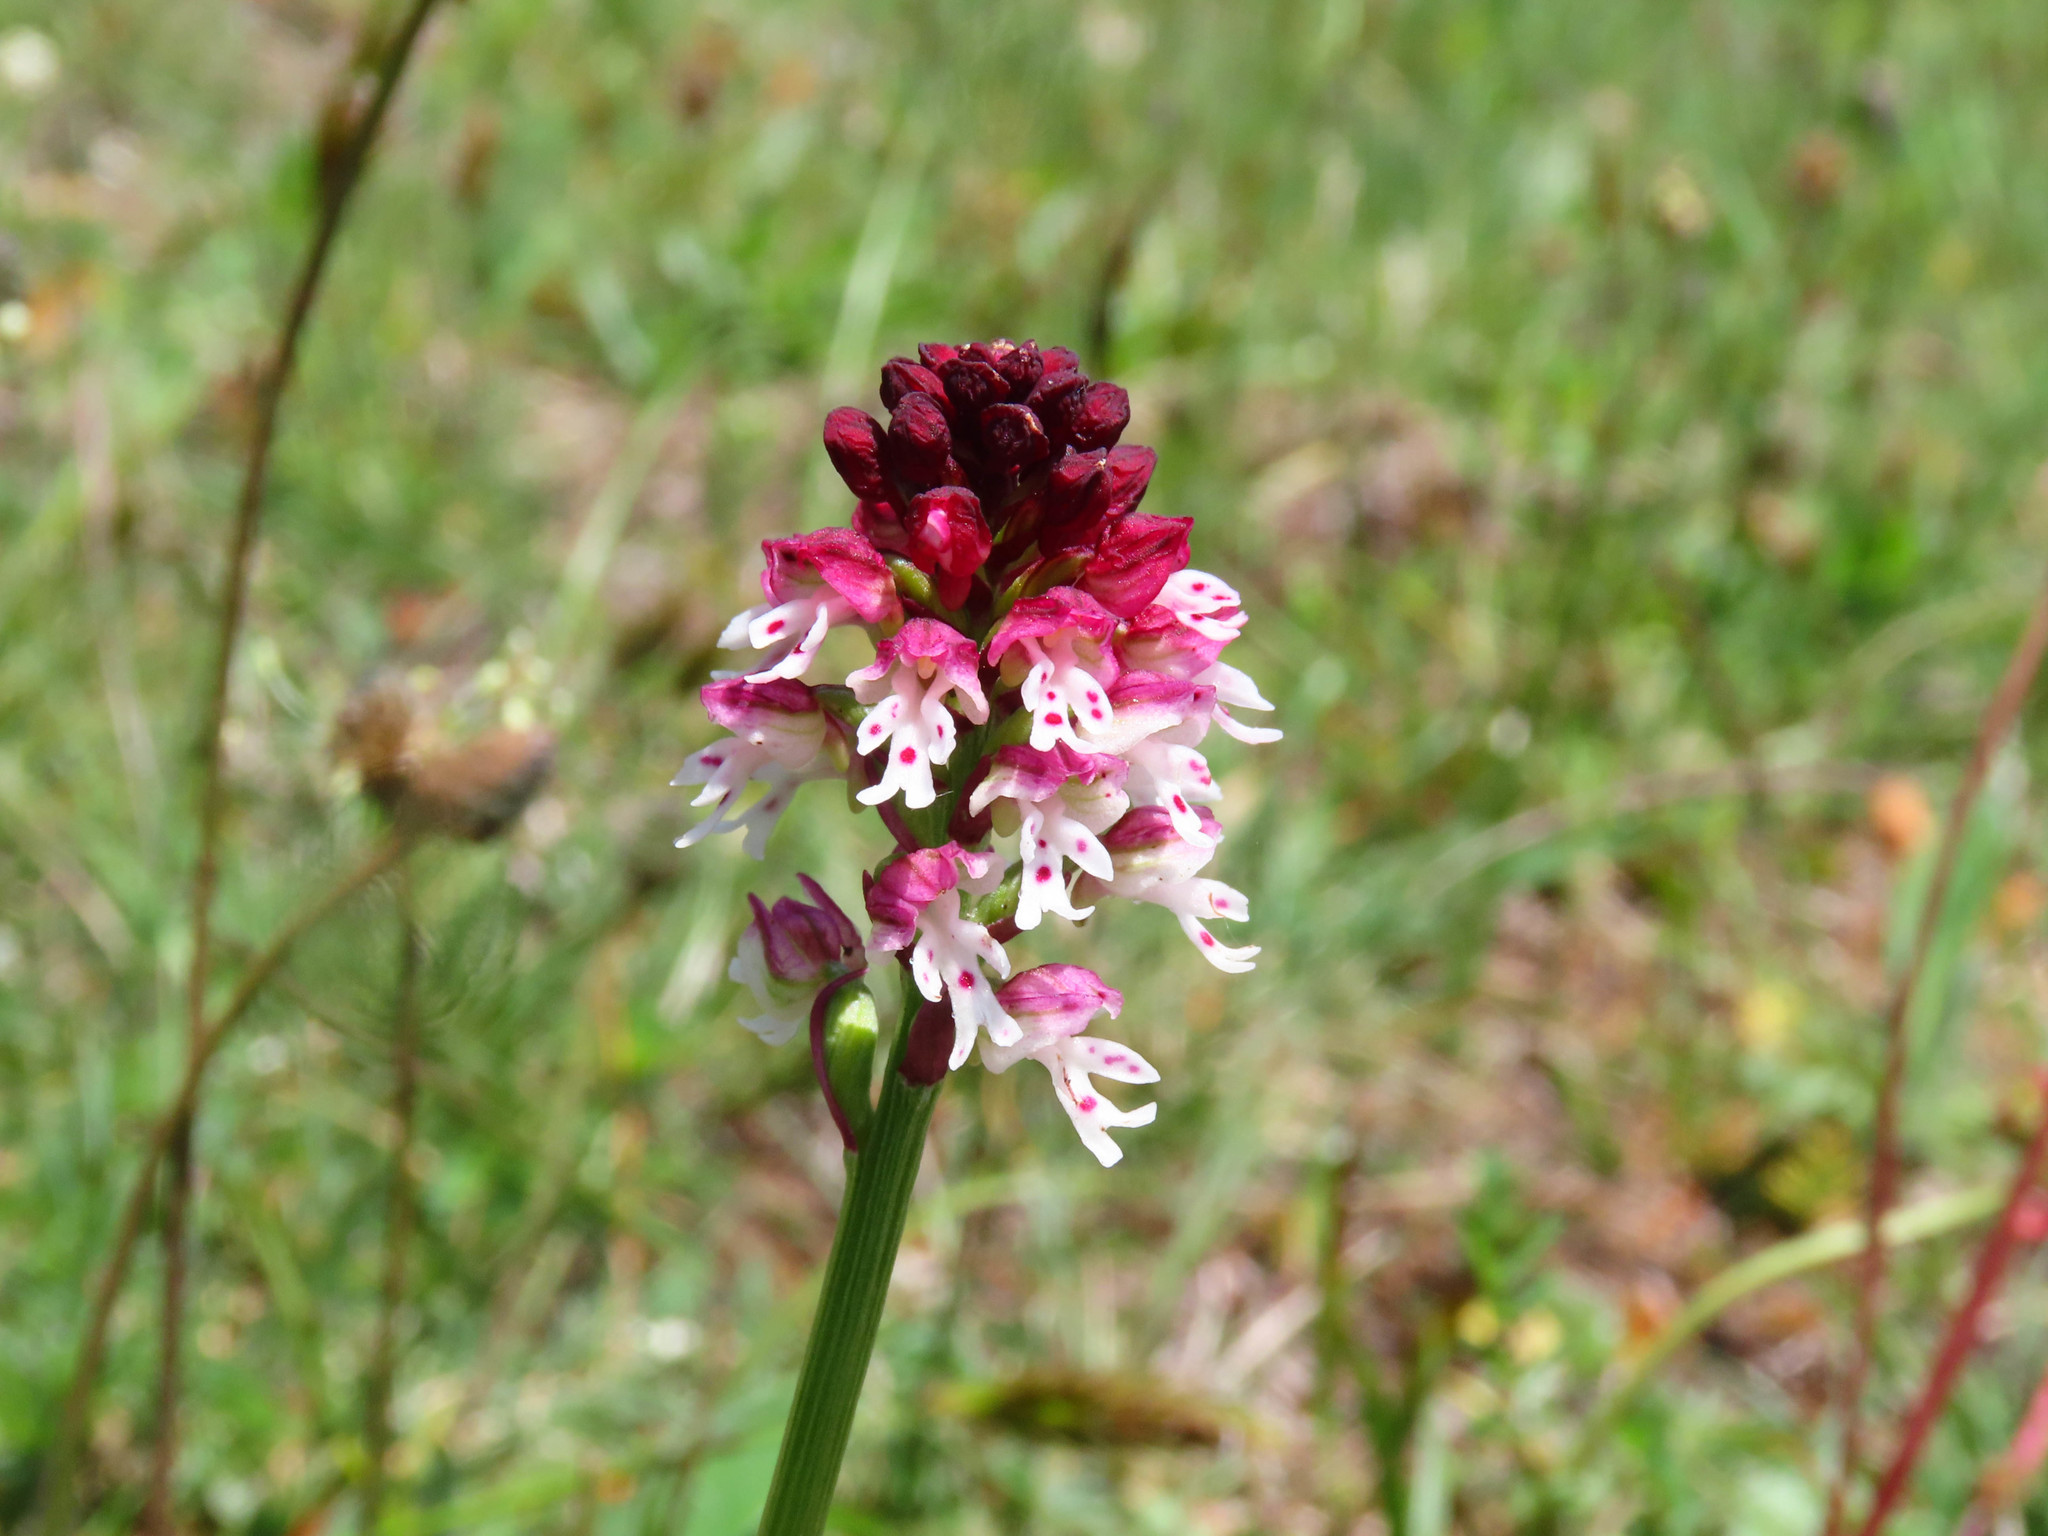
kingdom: Plantae
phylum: Tracheophyta
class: Liliopsida
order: Asparagales
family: Orchidaceae
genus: Neotinea
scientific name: Neotinea ustulata
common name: Burnt orchid
